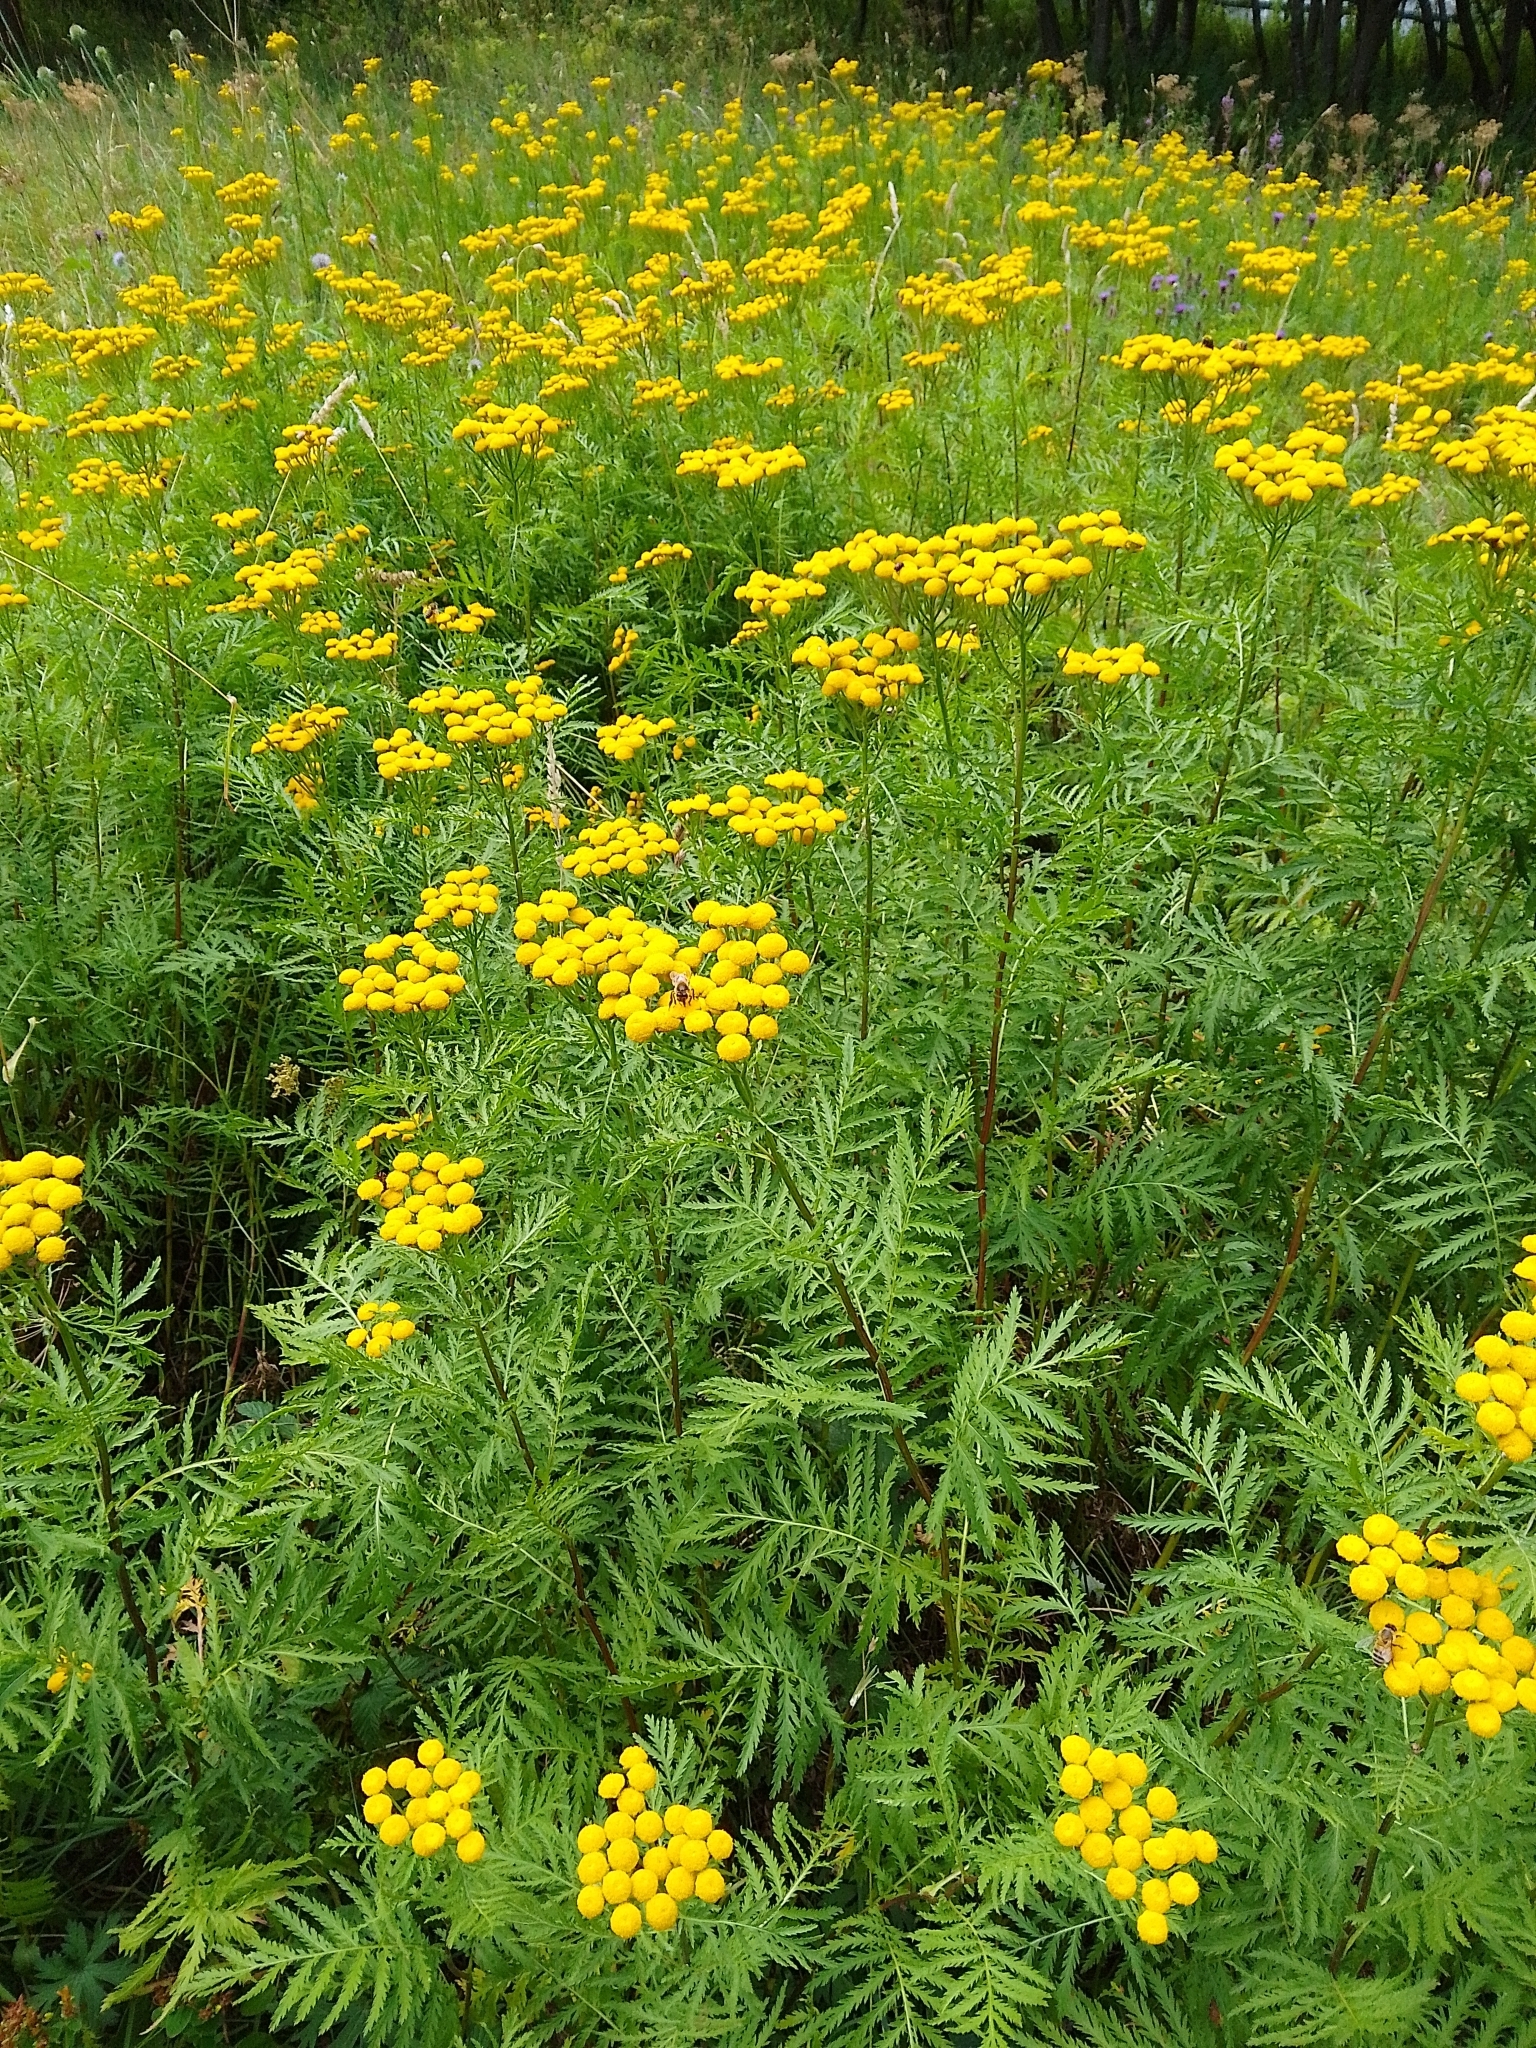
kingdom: Plantae
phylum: Tracheophyta
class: Magnoliopsida
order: Asterales
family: Asteraceae
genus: Tanacetum
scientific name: Tanacetum vulgare
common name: Common tansy
